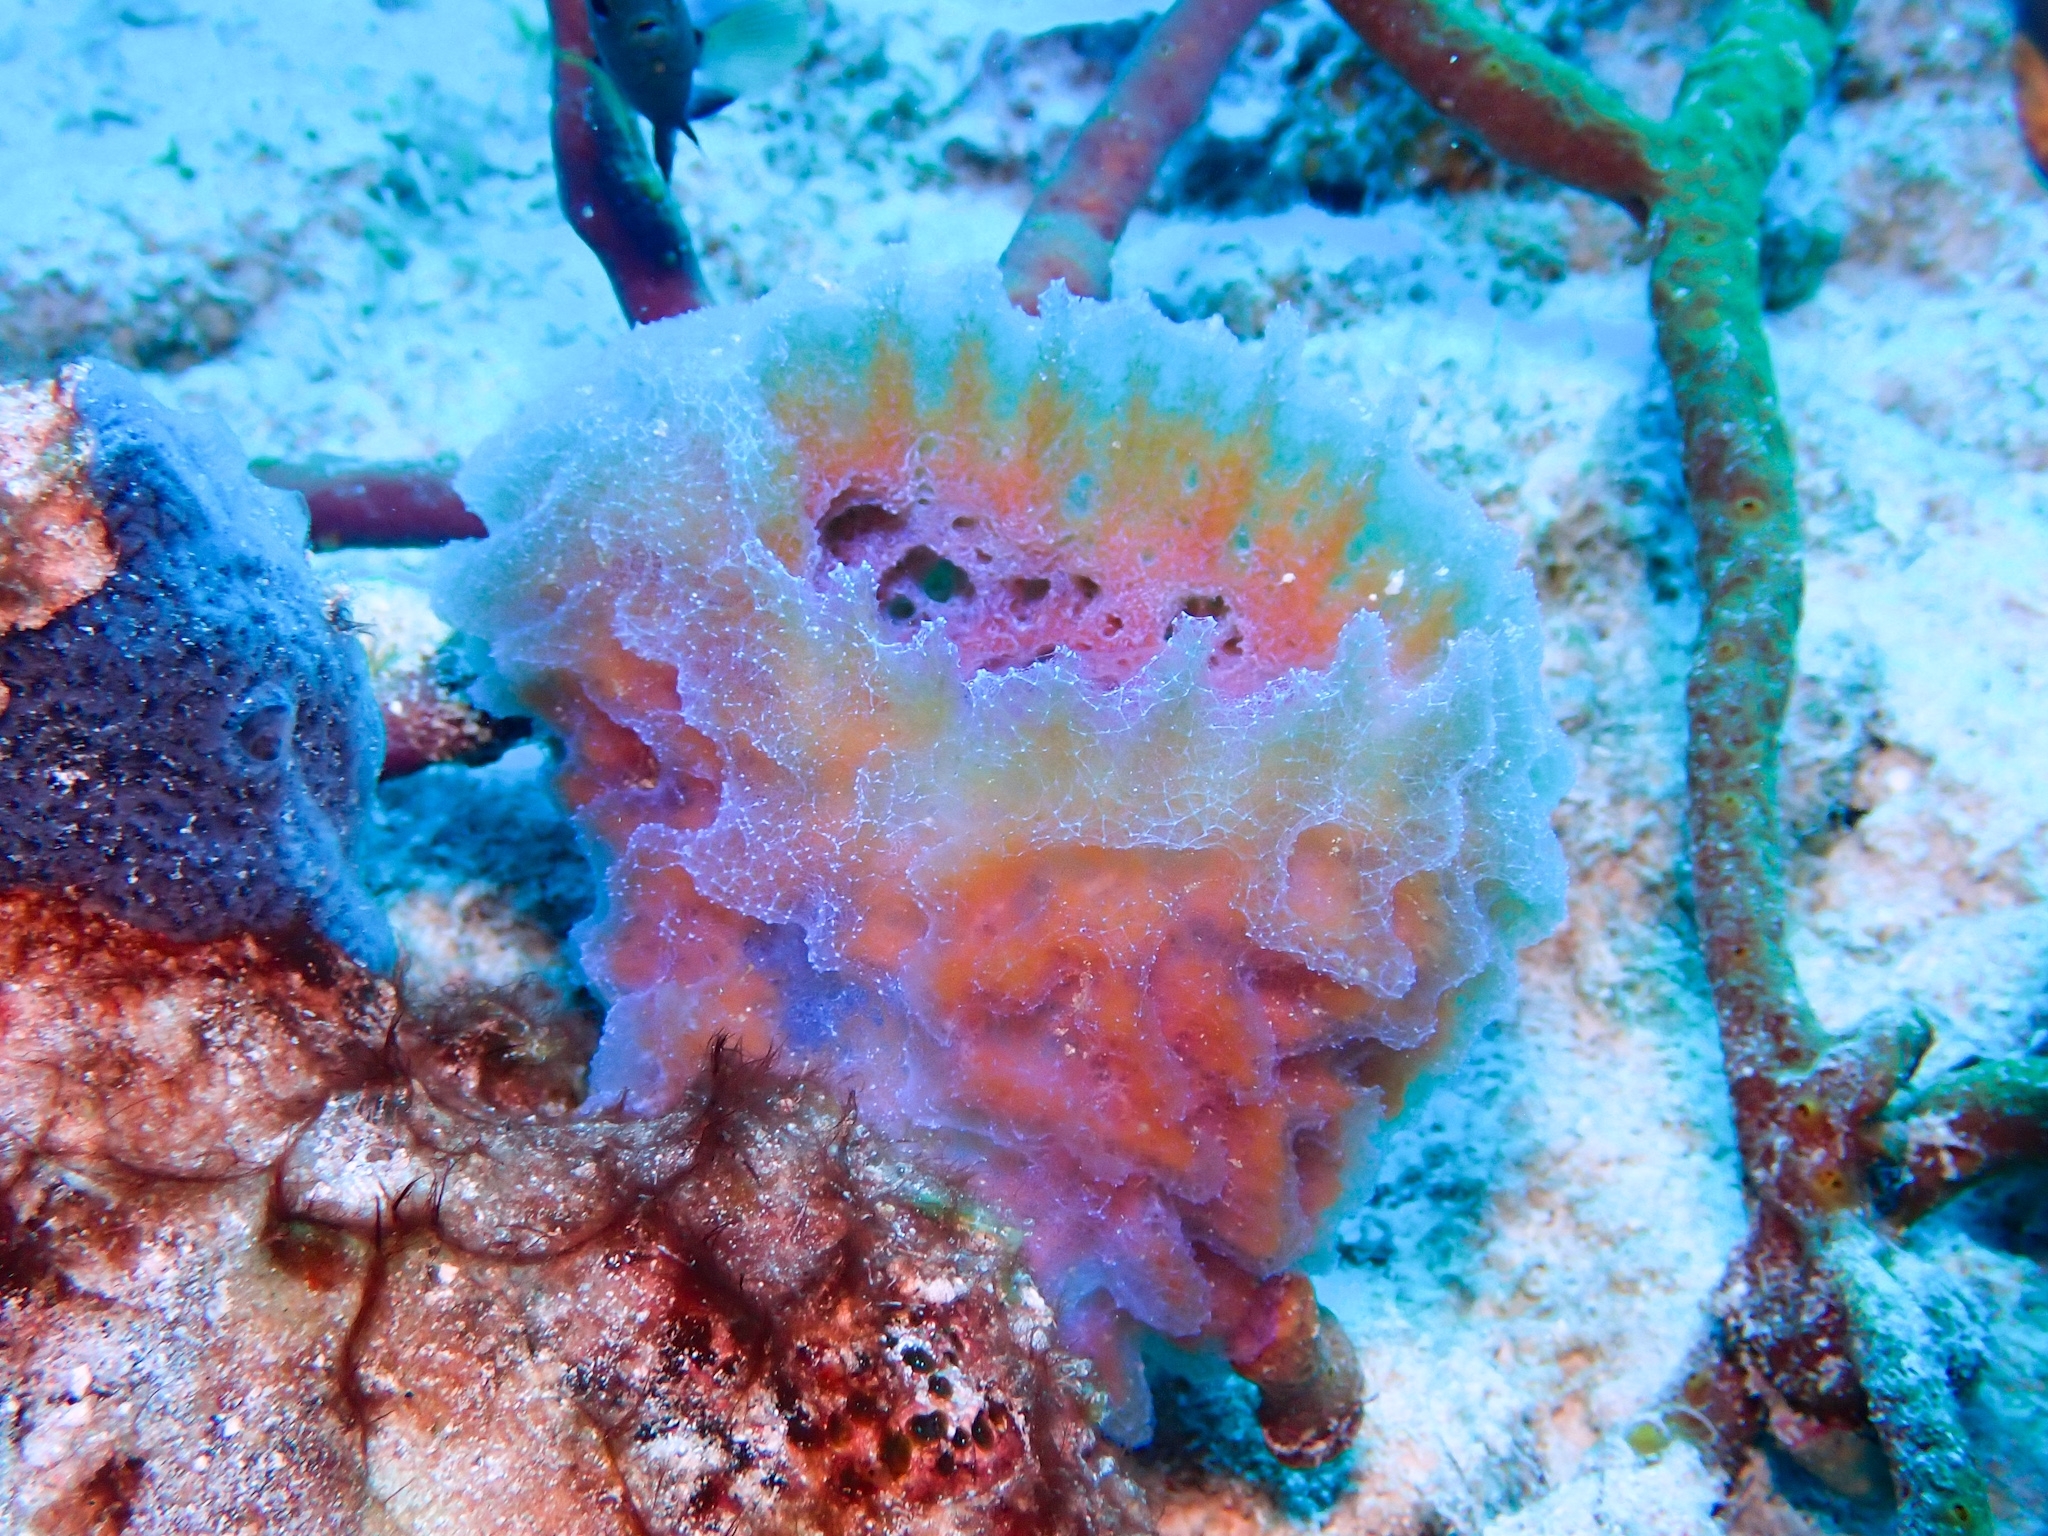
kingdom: Animalia
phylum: Porifera
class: Demospongiae
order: Haplosclerida
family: Callyspongiidae
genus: Callyspongia
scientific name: Callyspongia plicifera
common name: Azure vase sponge
